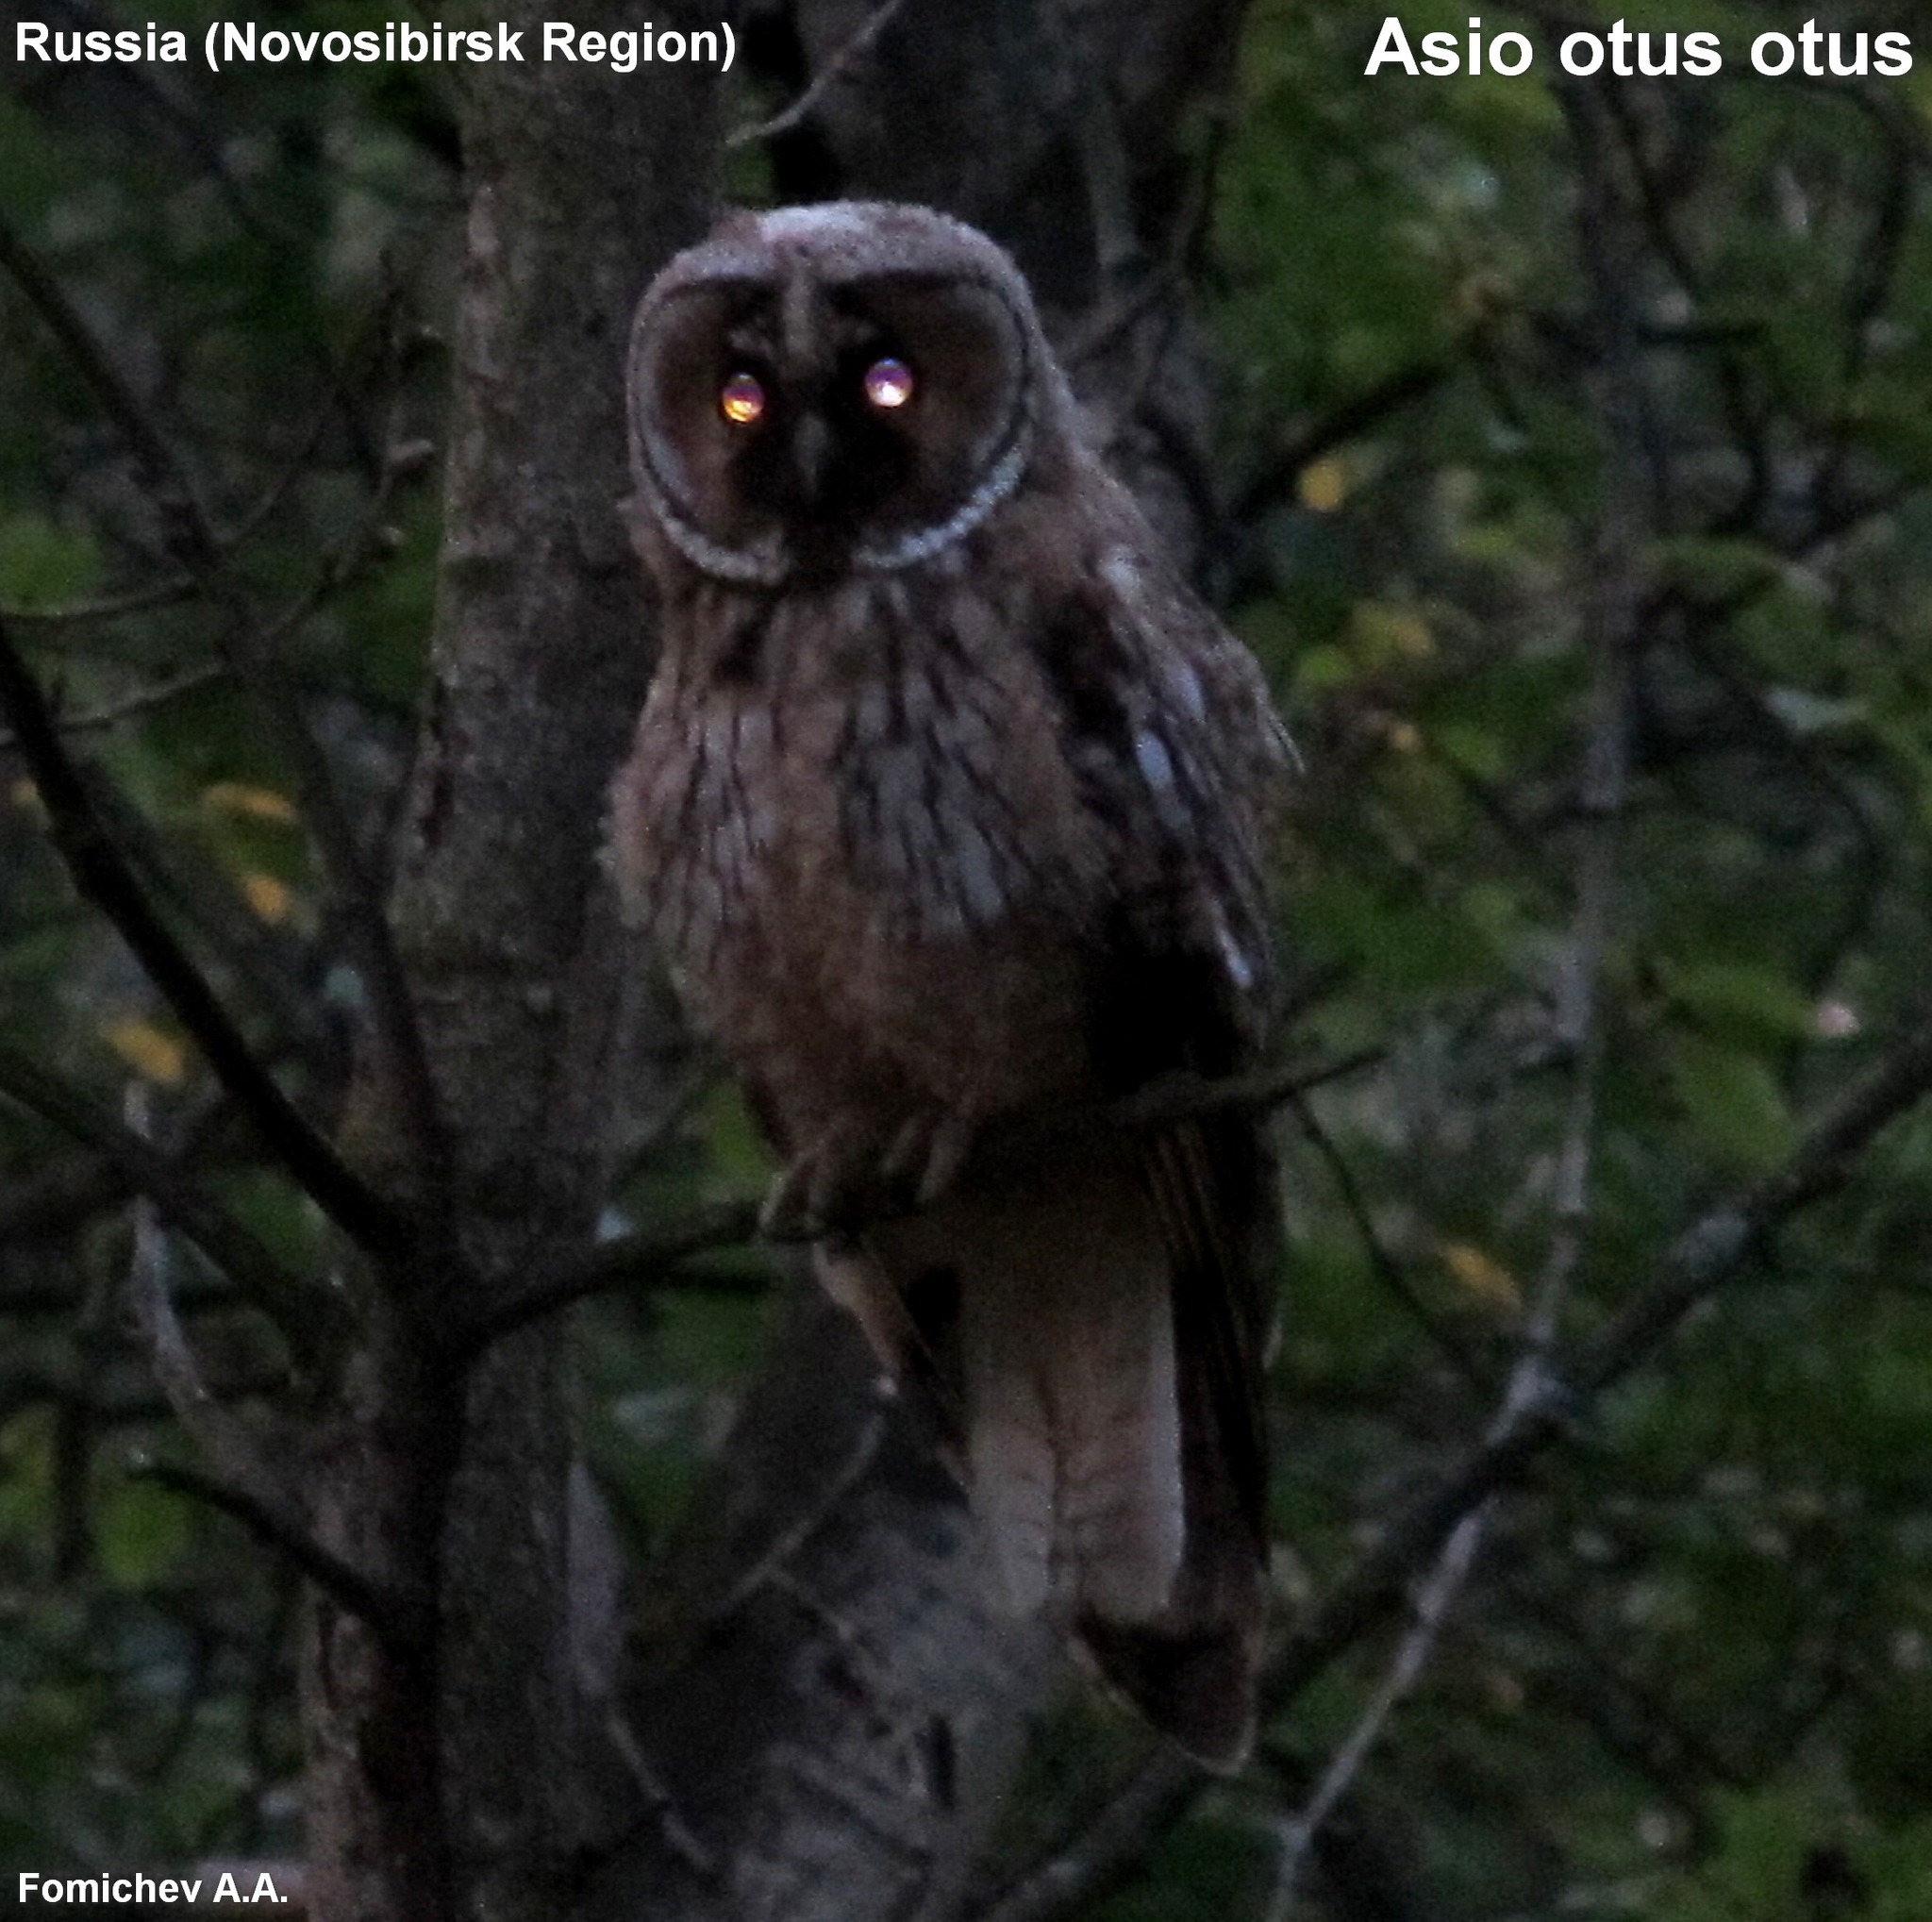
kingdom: Animalia
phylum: Chordata
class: Aves
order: Strigiformes
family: Strigidae
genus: Asio
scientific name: Asio otus
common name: Long-eared owl
